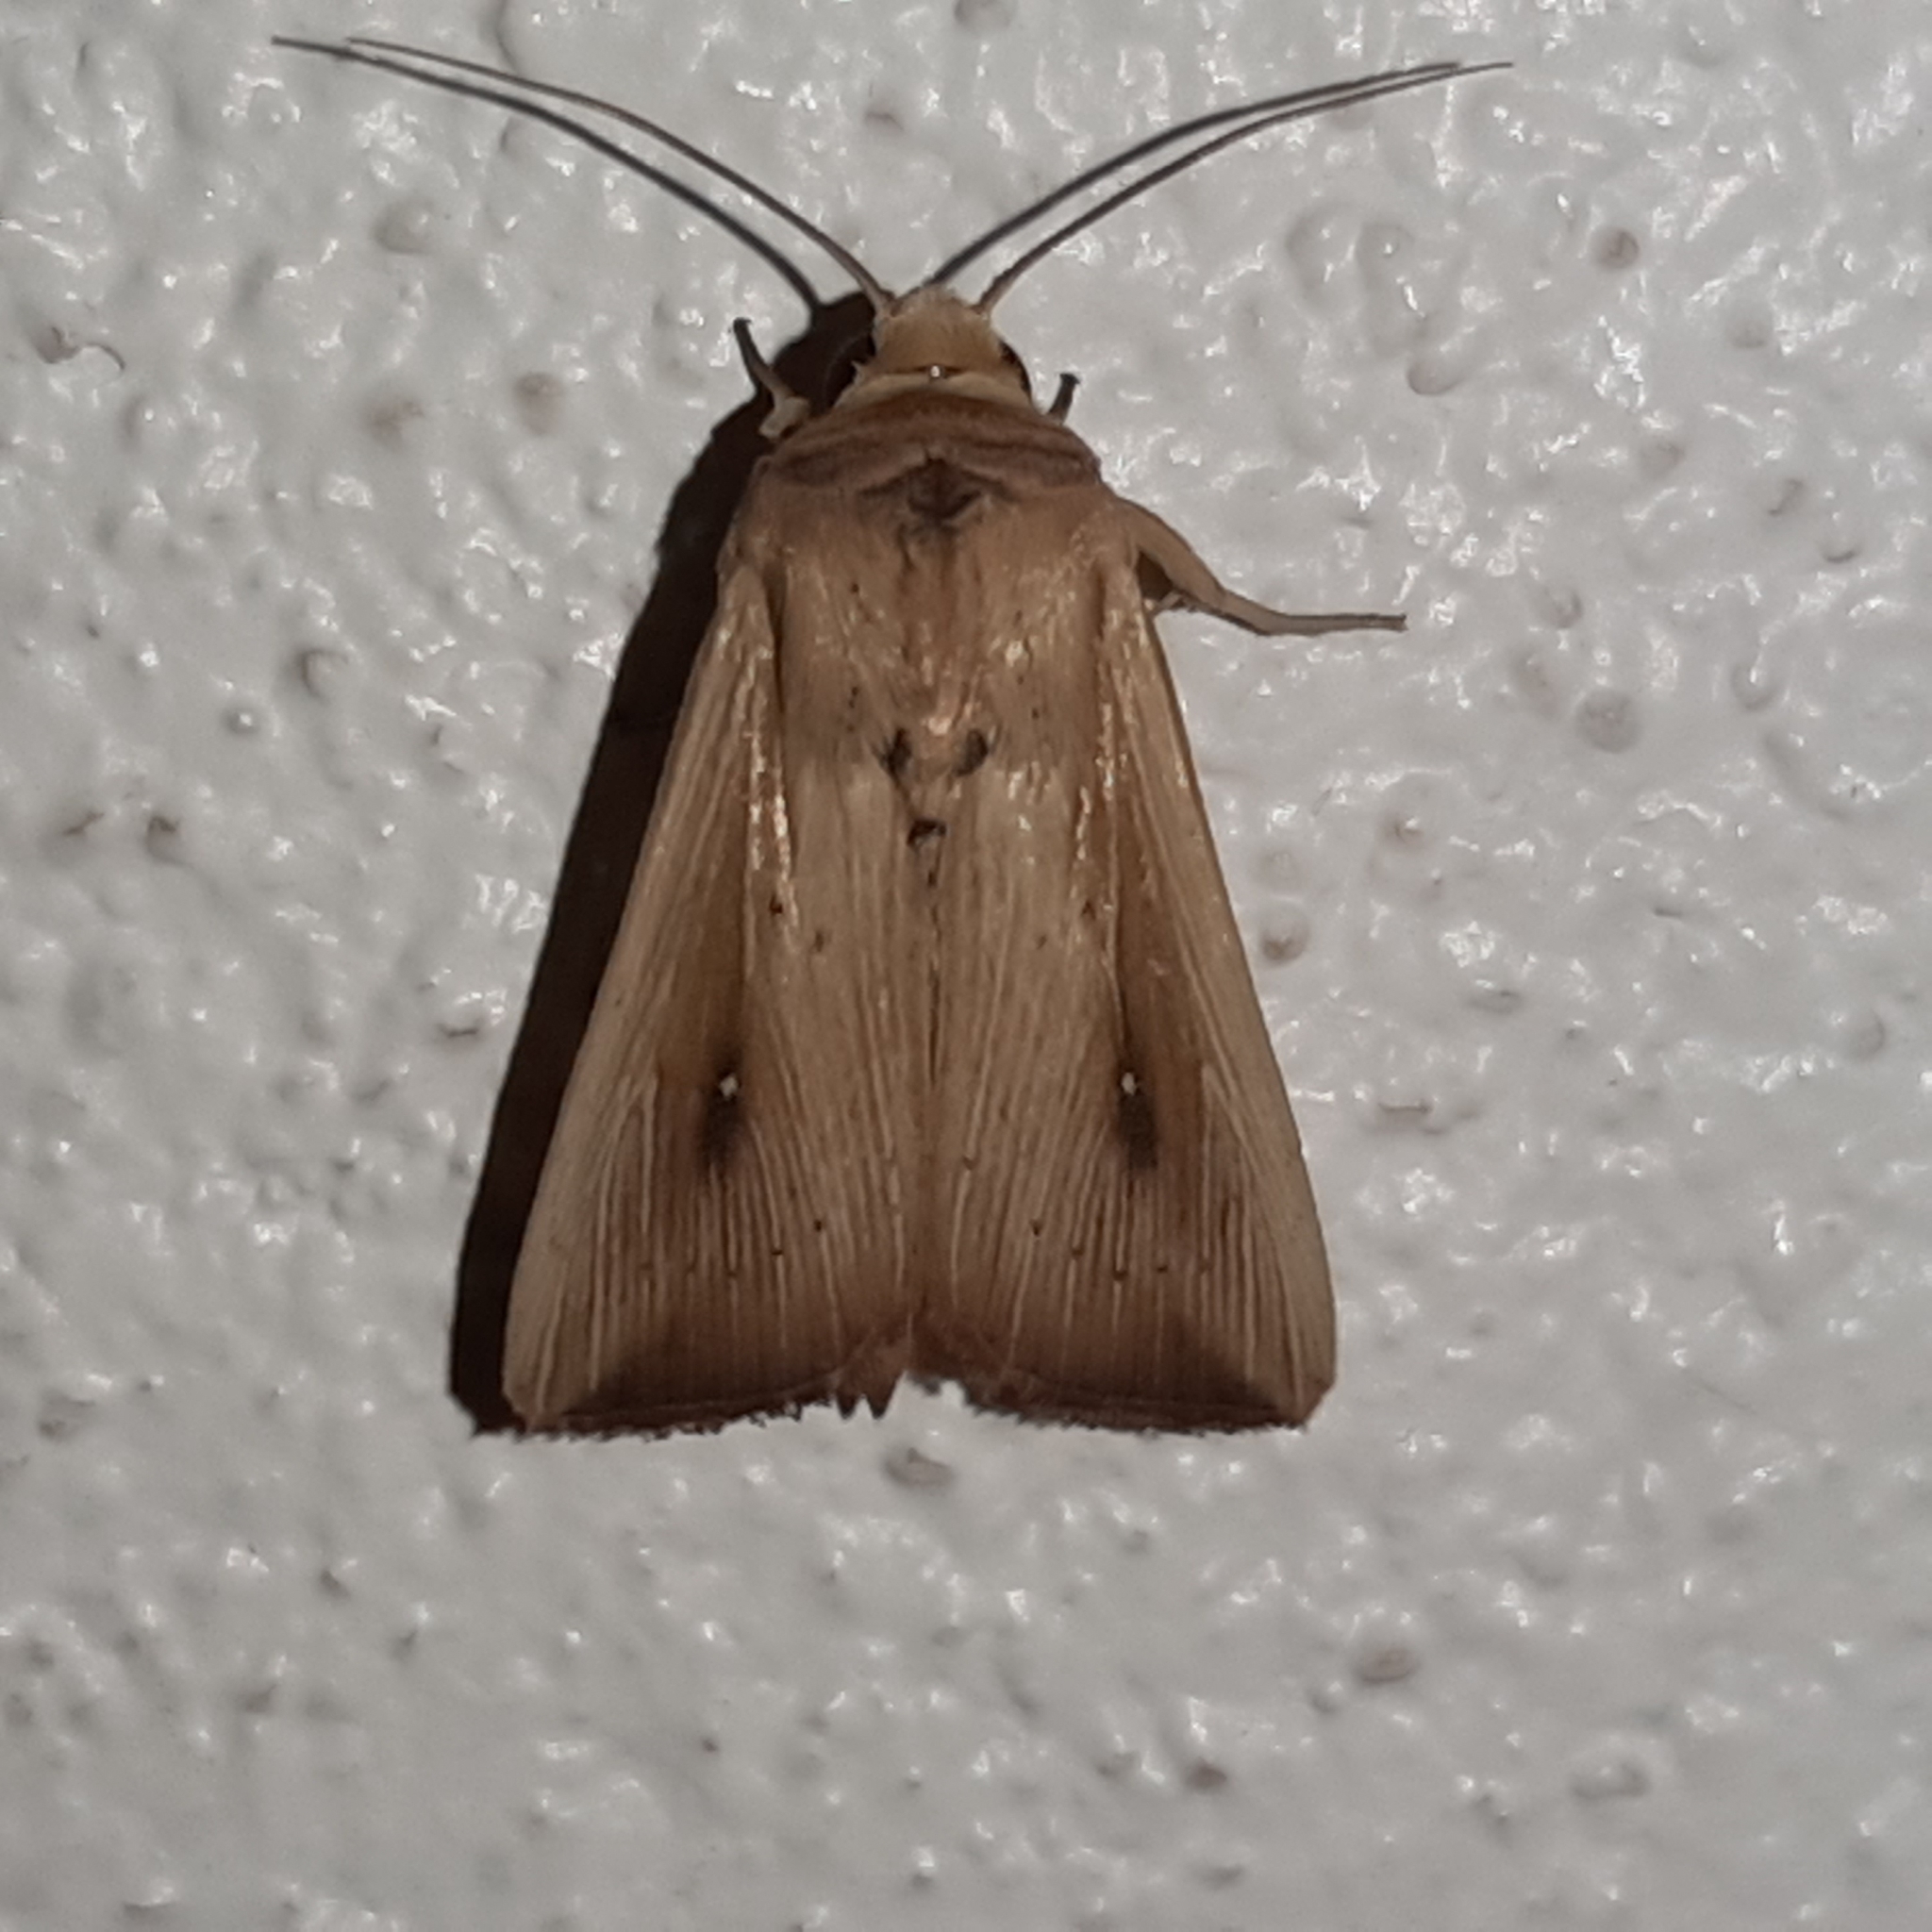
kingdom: Animalia
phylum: Arthropoda
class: Insecta
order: Lepidoptera
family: Noctuidae
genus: Leucania
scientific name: Leucania incognita
